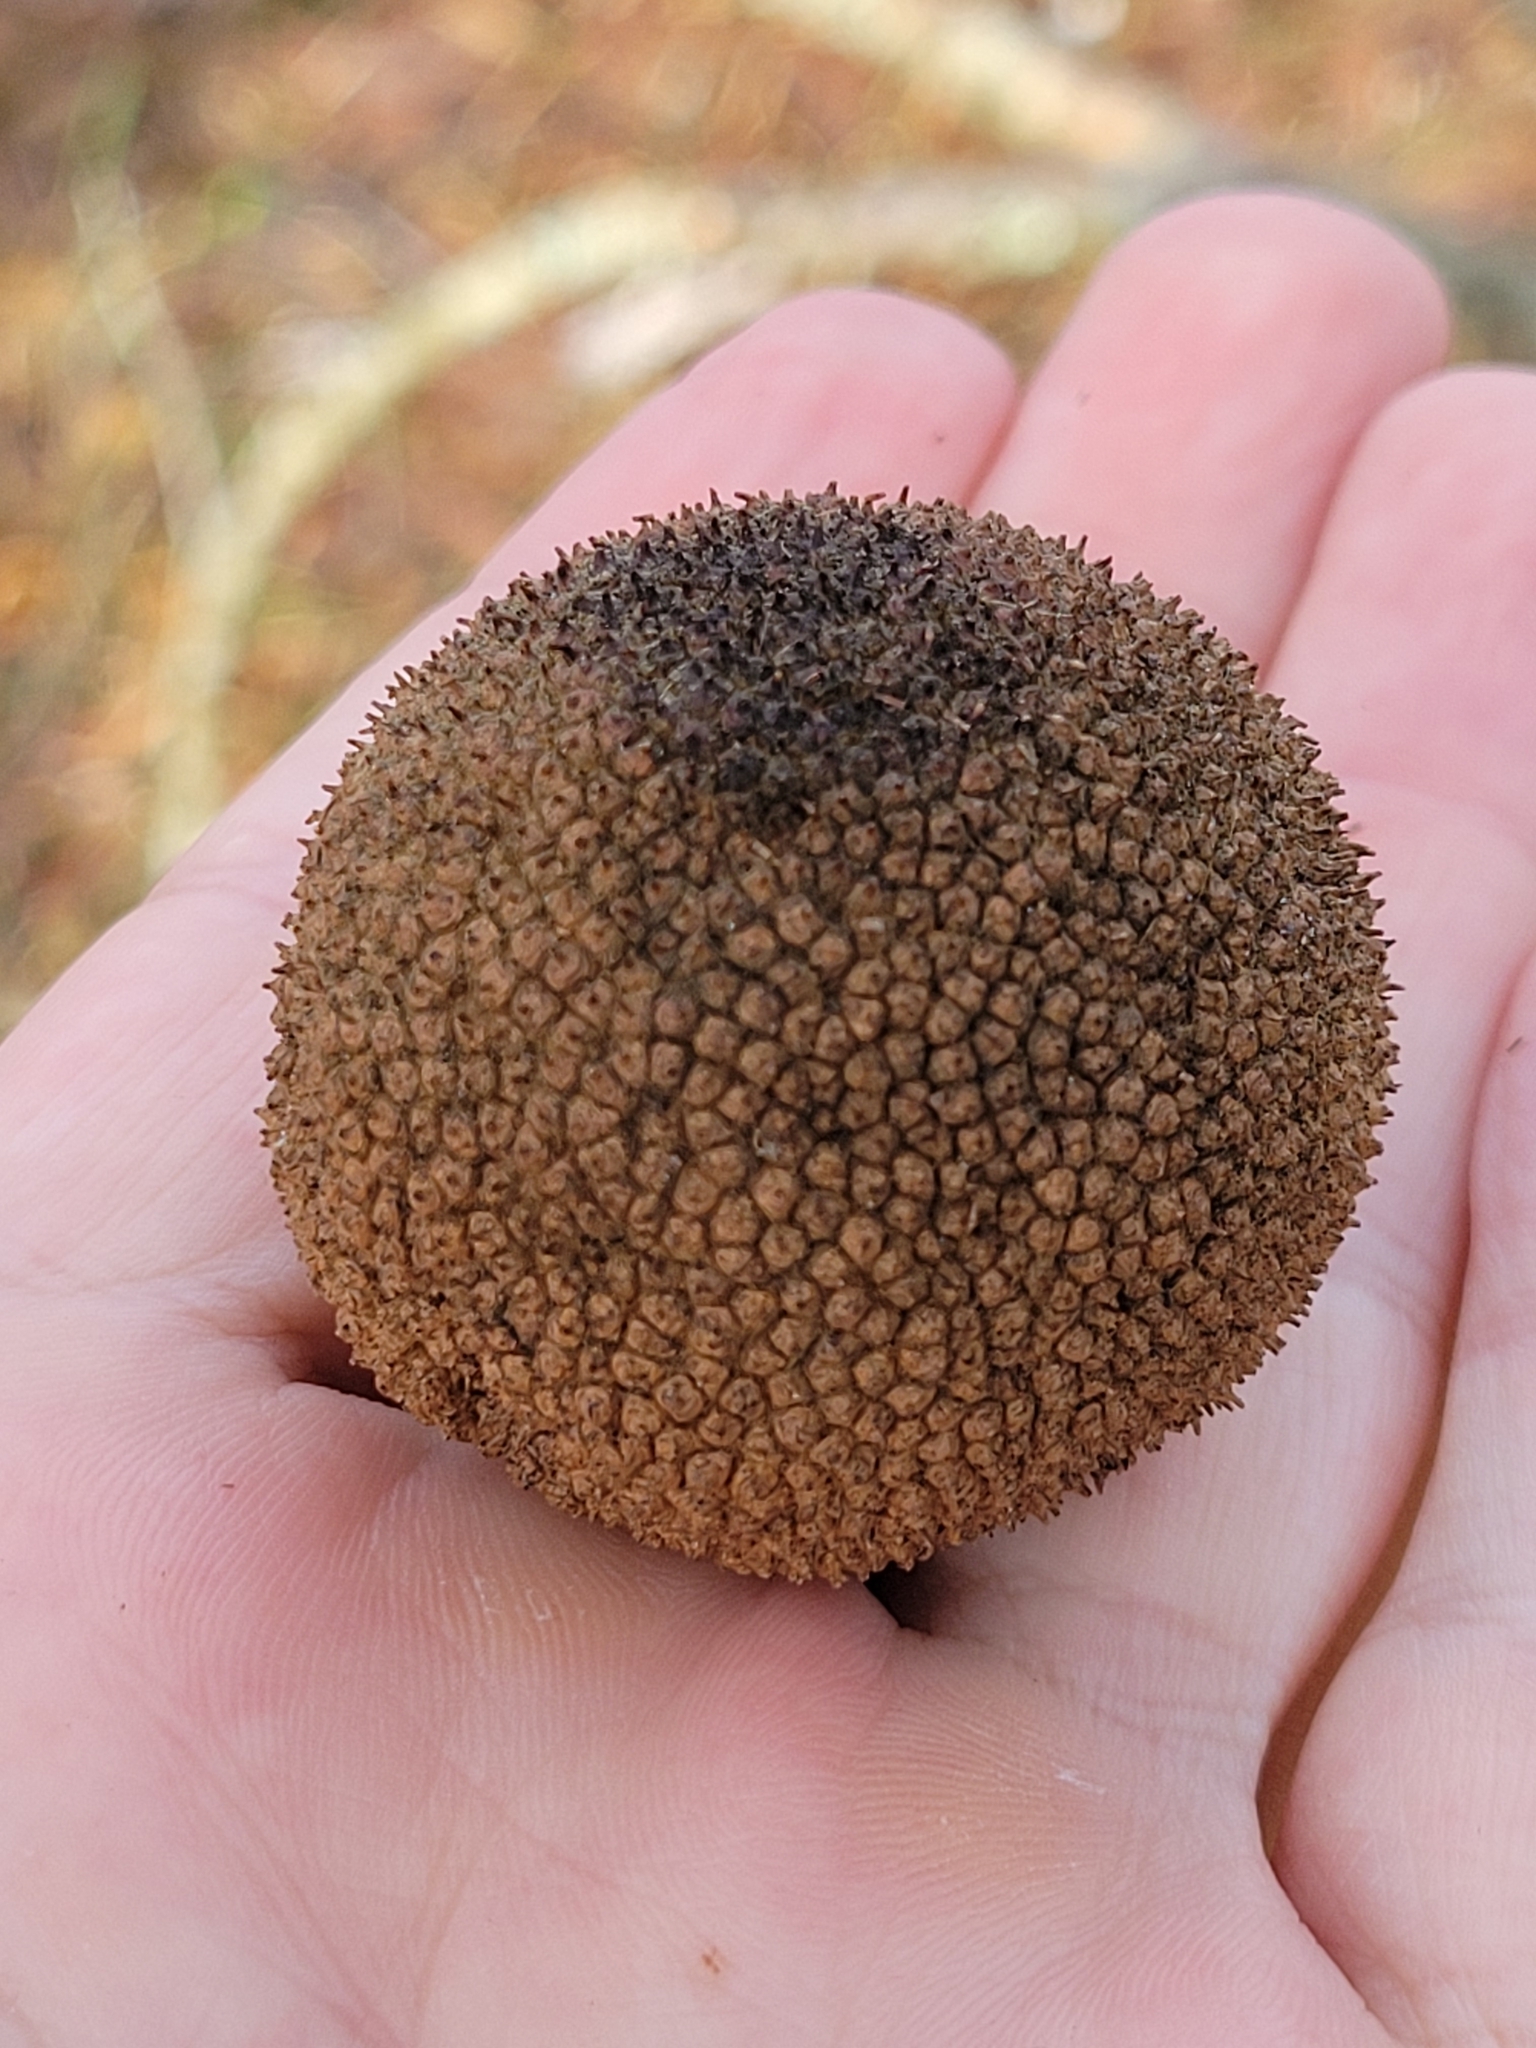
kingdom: Plantae
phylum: Tracheophyta
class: Magnoliopsida
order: Proteales
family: Platanaceae
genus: Platanus
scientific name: Platanus occidentalis
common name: American sycamore
